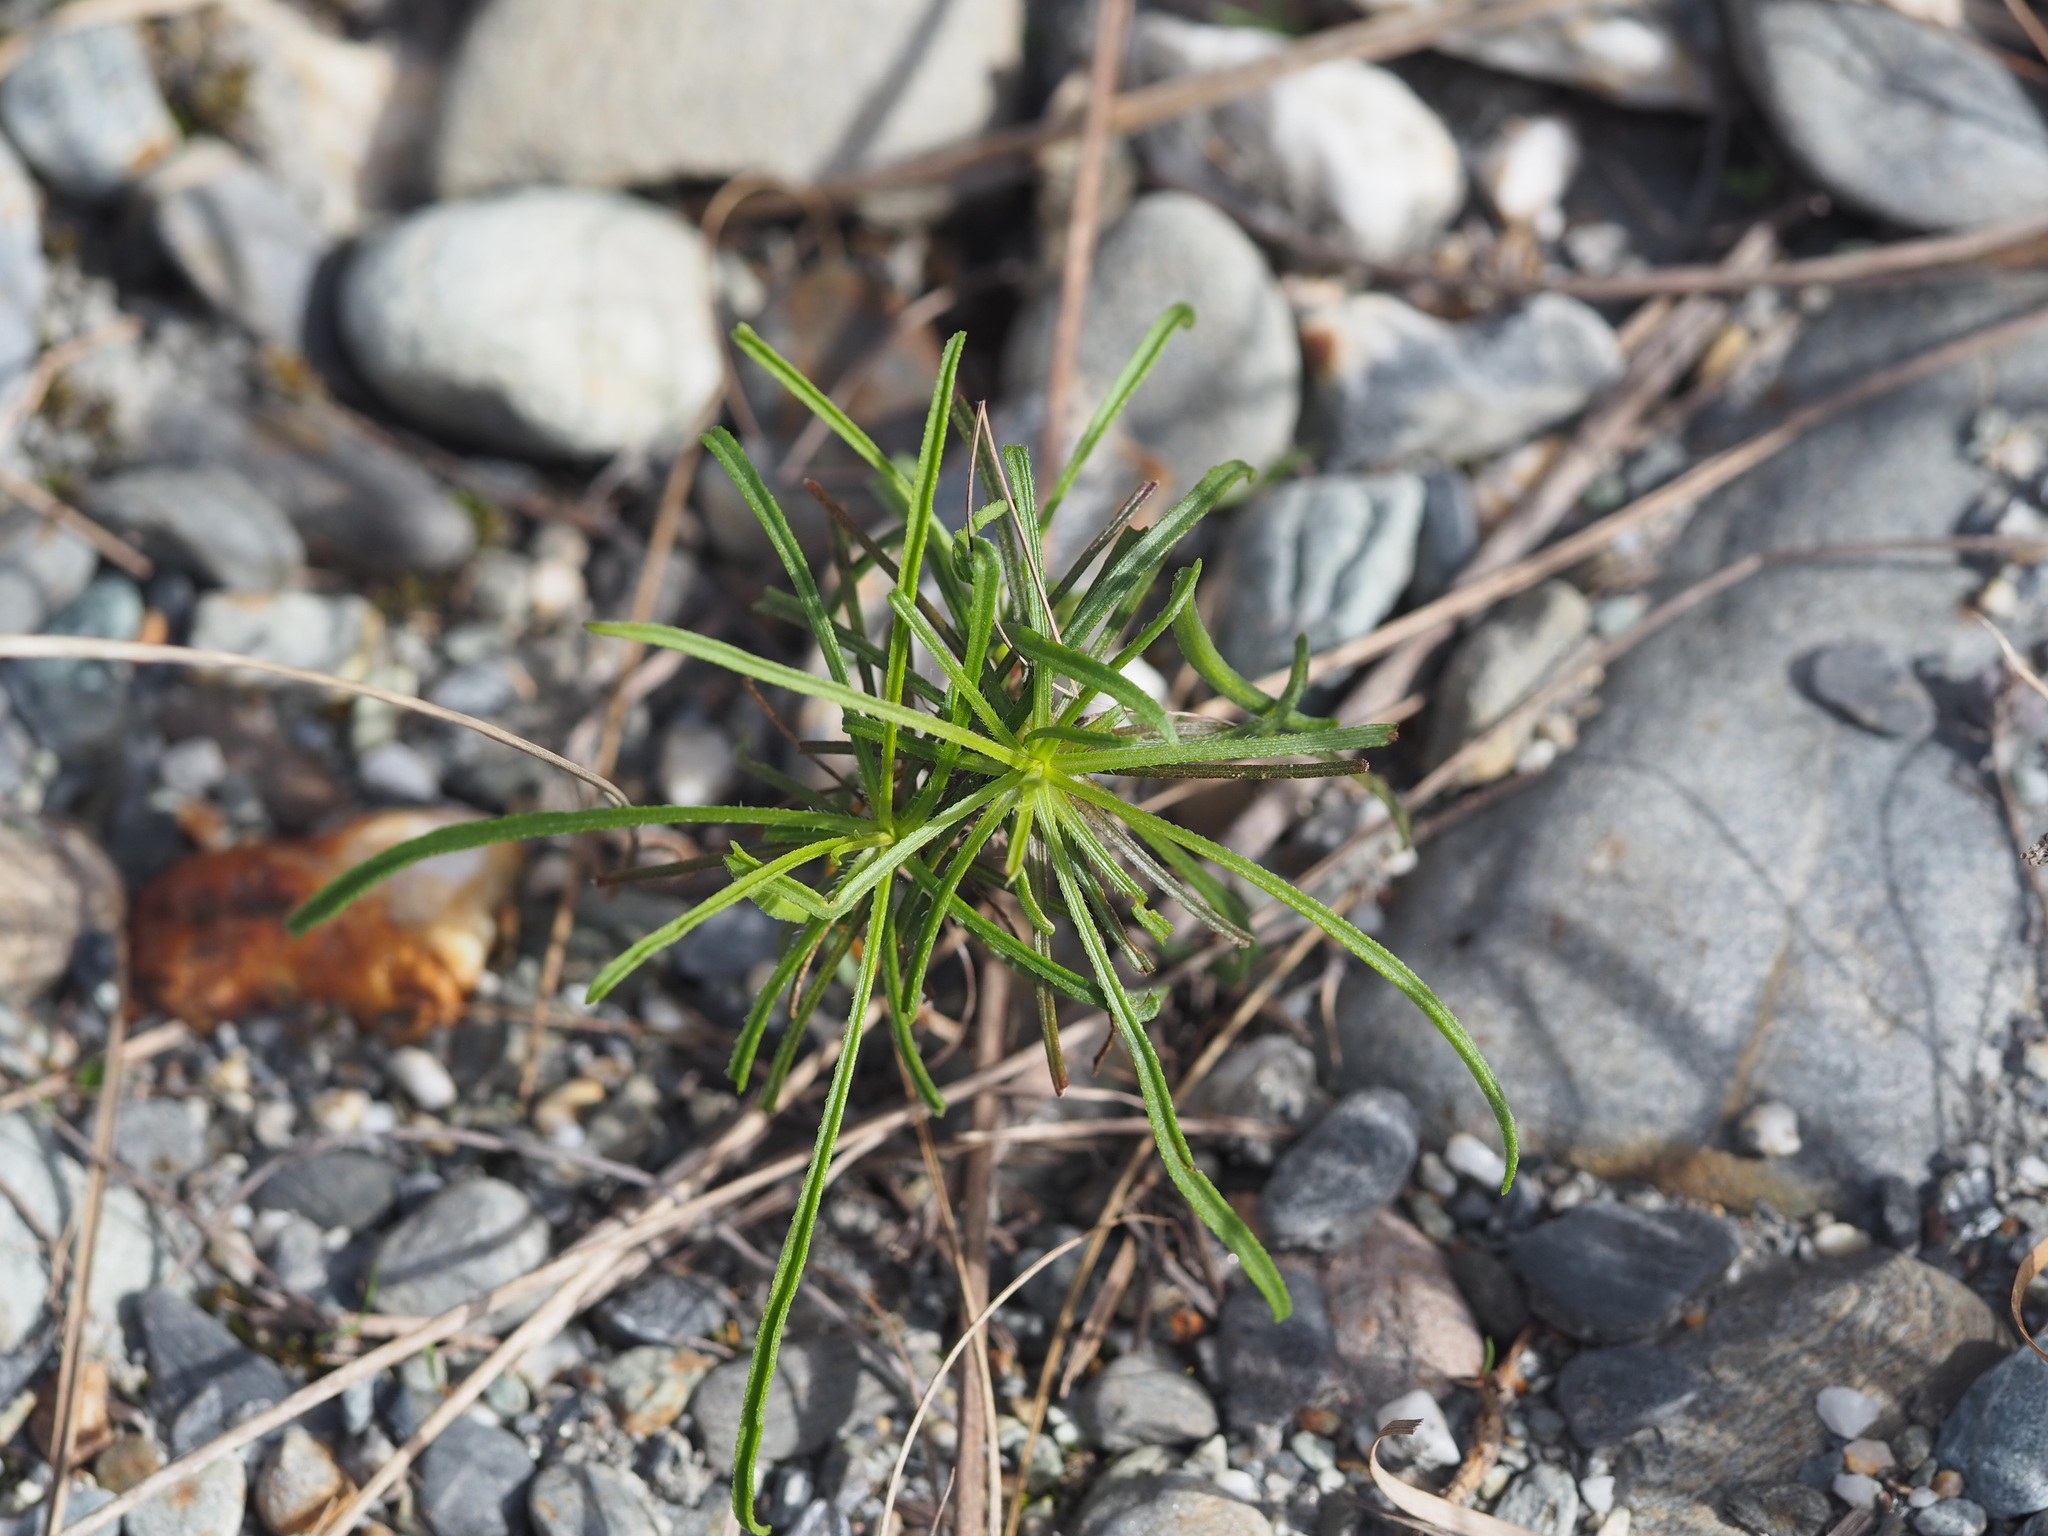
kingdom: Plantae
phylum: Tracheophyta
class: Magnoliopsida
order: Asterales
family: Asteraceae
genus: Heteropappus
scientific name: Heteropappus altaicus
